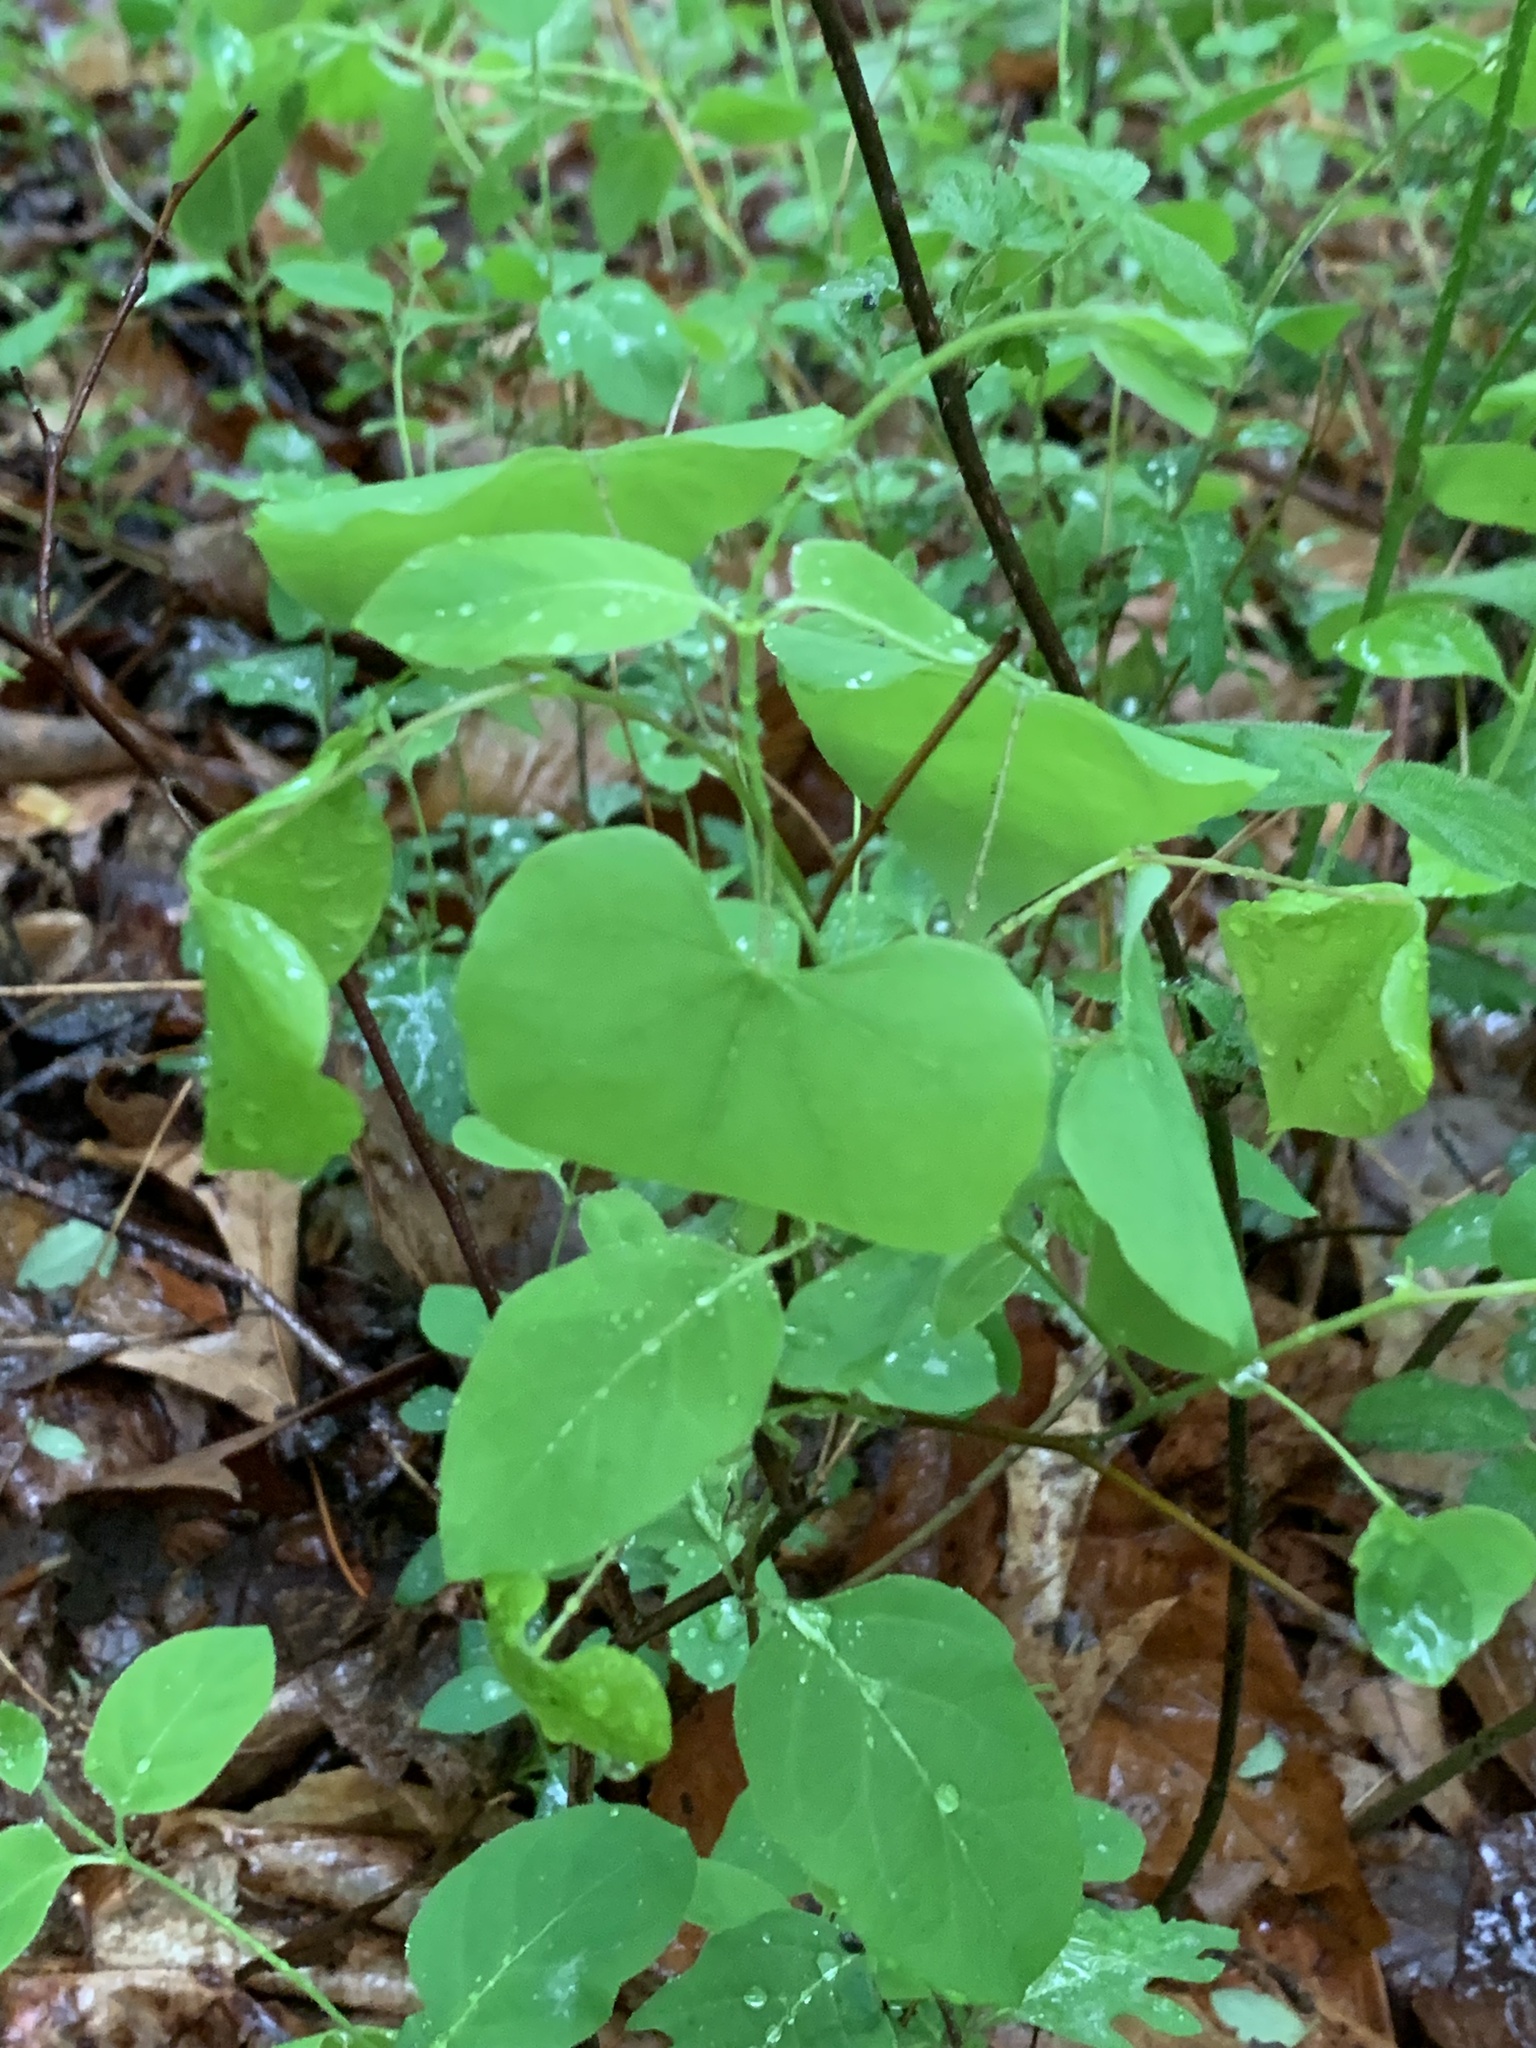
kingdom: Plantae
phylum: Tracheophyta
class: Magnoliopsida
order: Fabales
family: Fabaceae
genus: Cercis
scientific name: Cercis canadensis
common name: Eastern redbud
